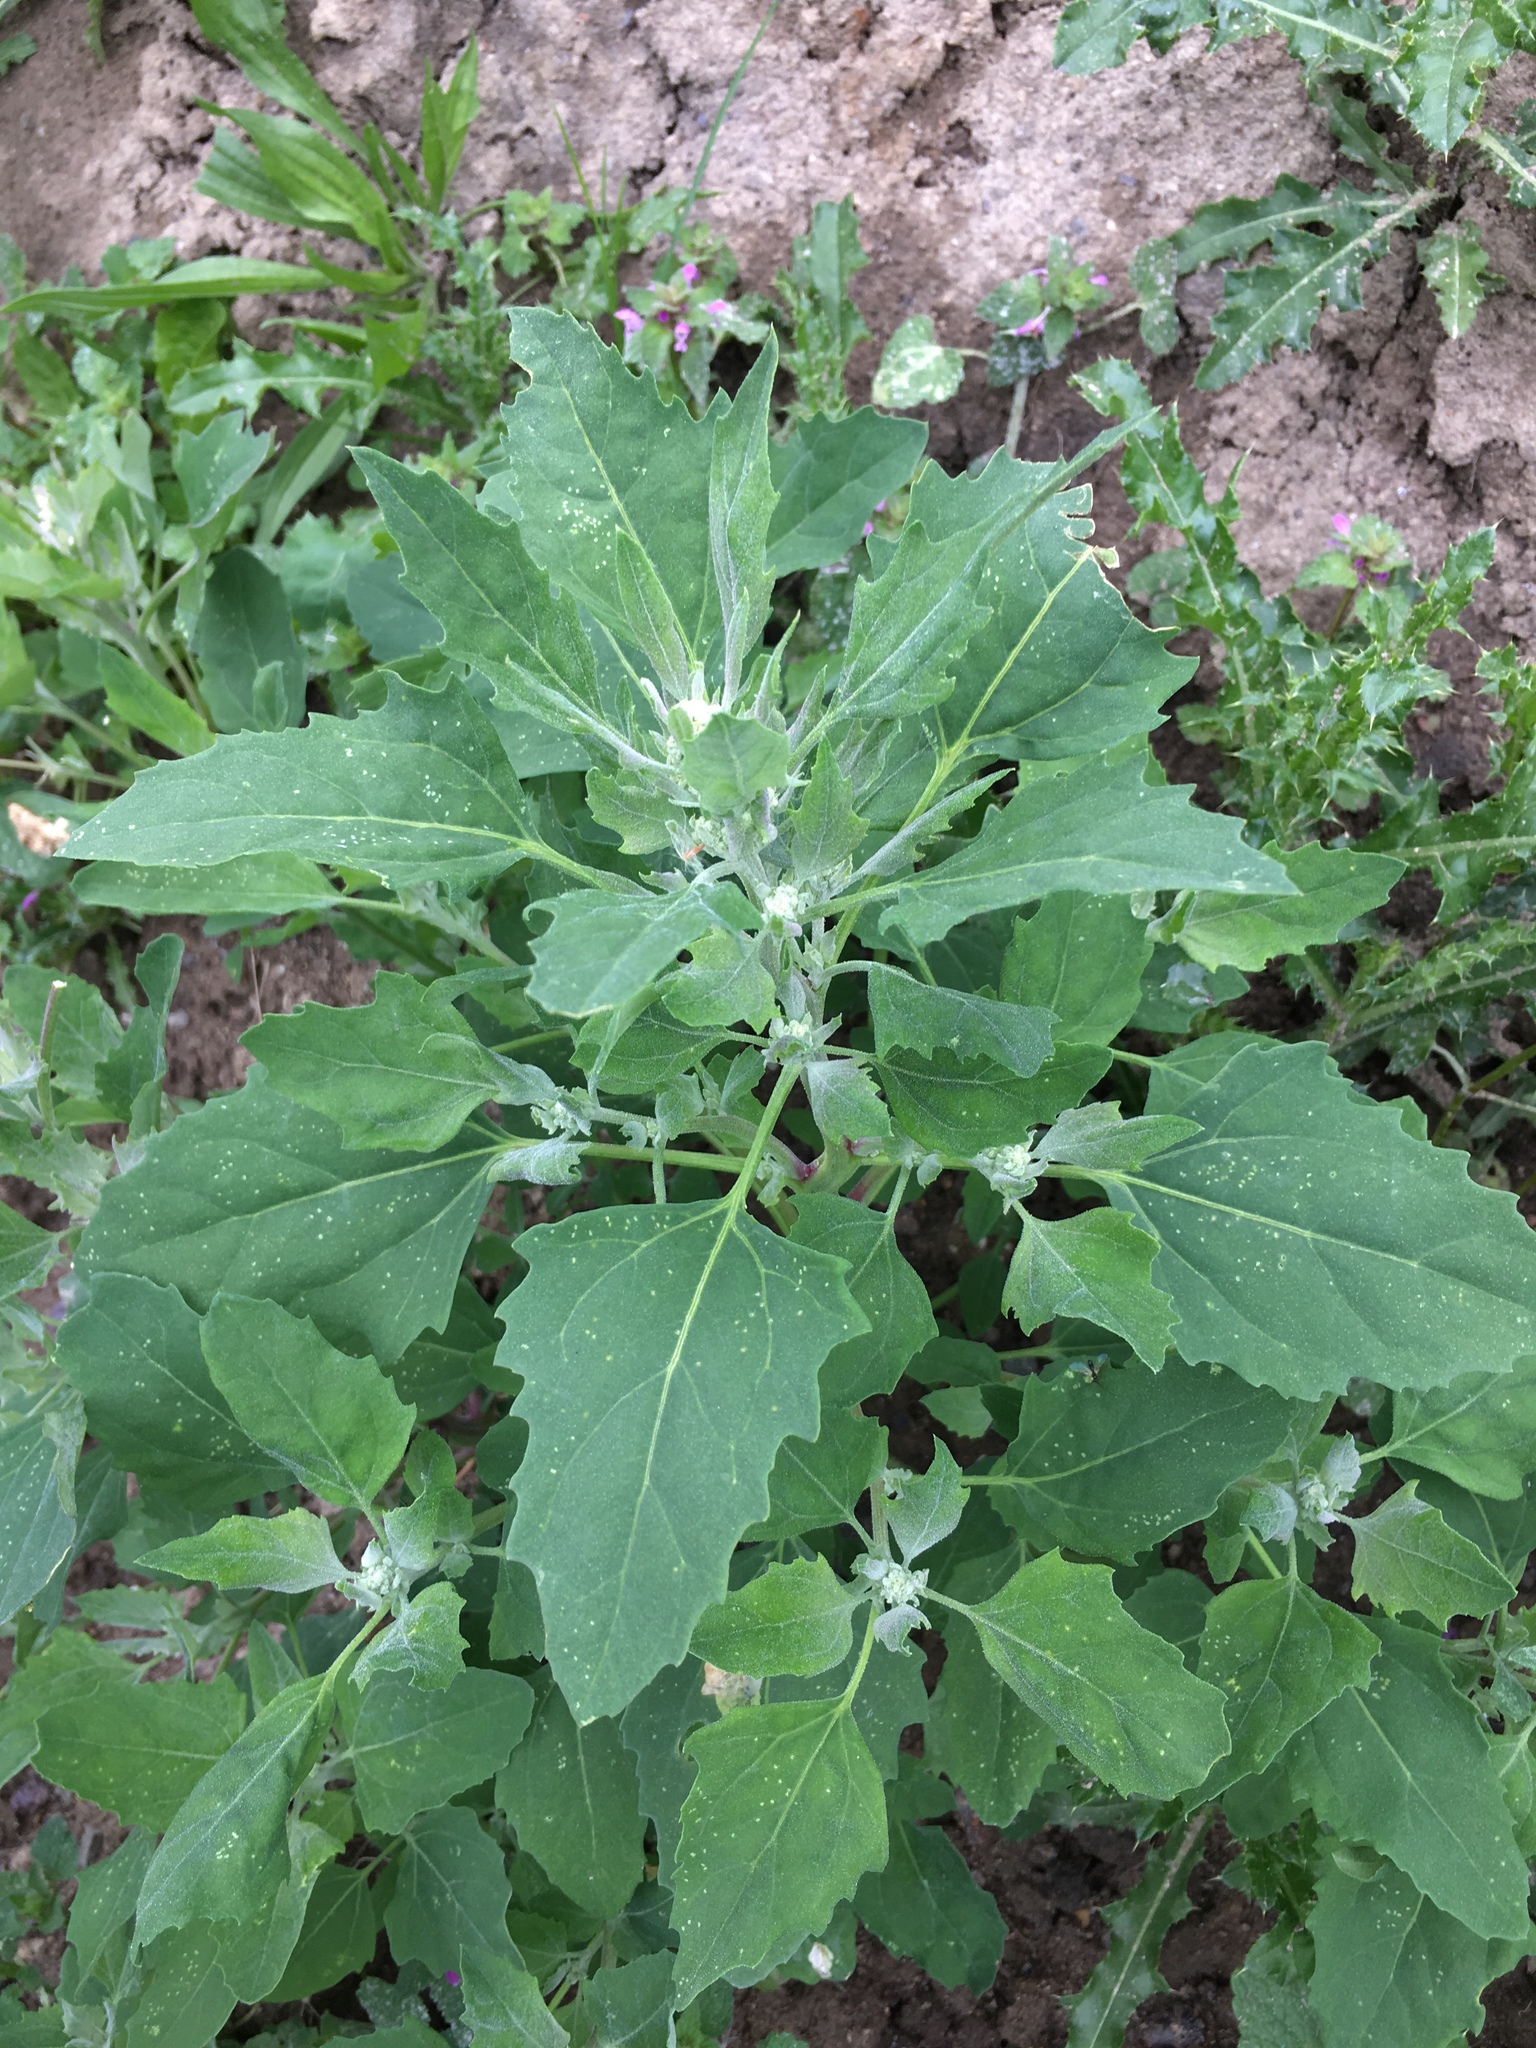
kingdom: Plantae
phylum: Tracheophyta
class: Magnoliopsida
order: Caryophyllales
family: Amaranthaceae
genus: Chenopodium
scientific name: Chenopodium album
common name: Fat-hen
